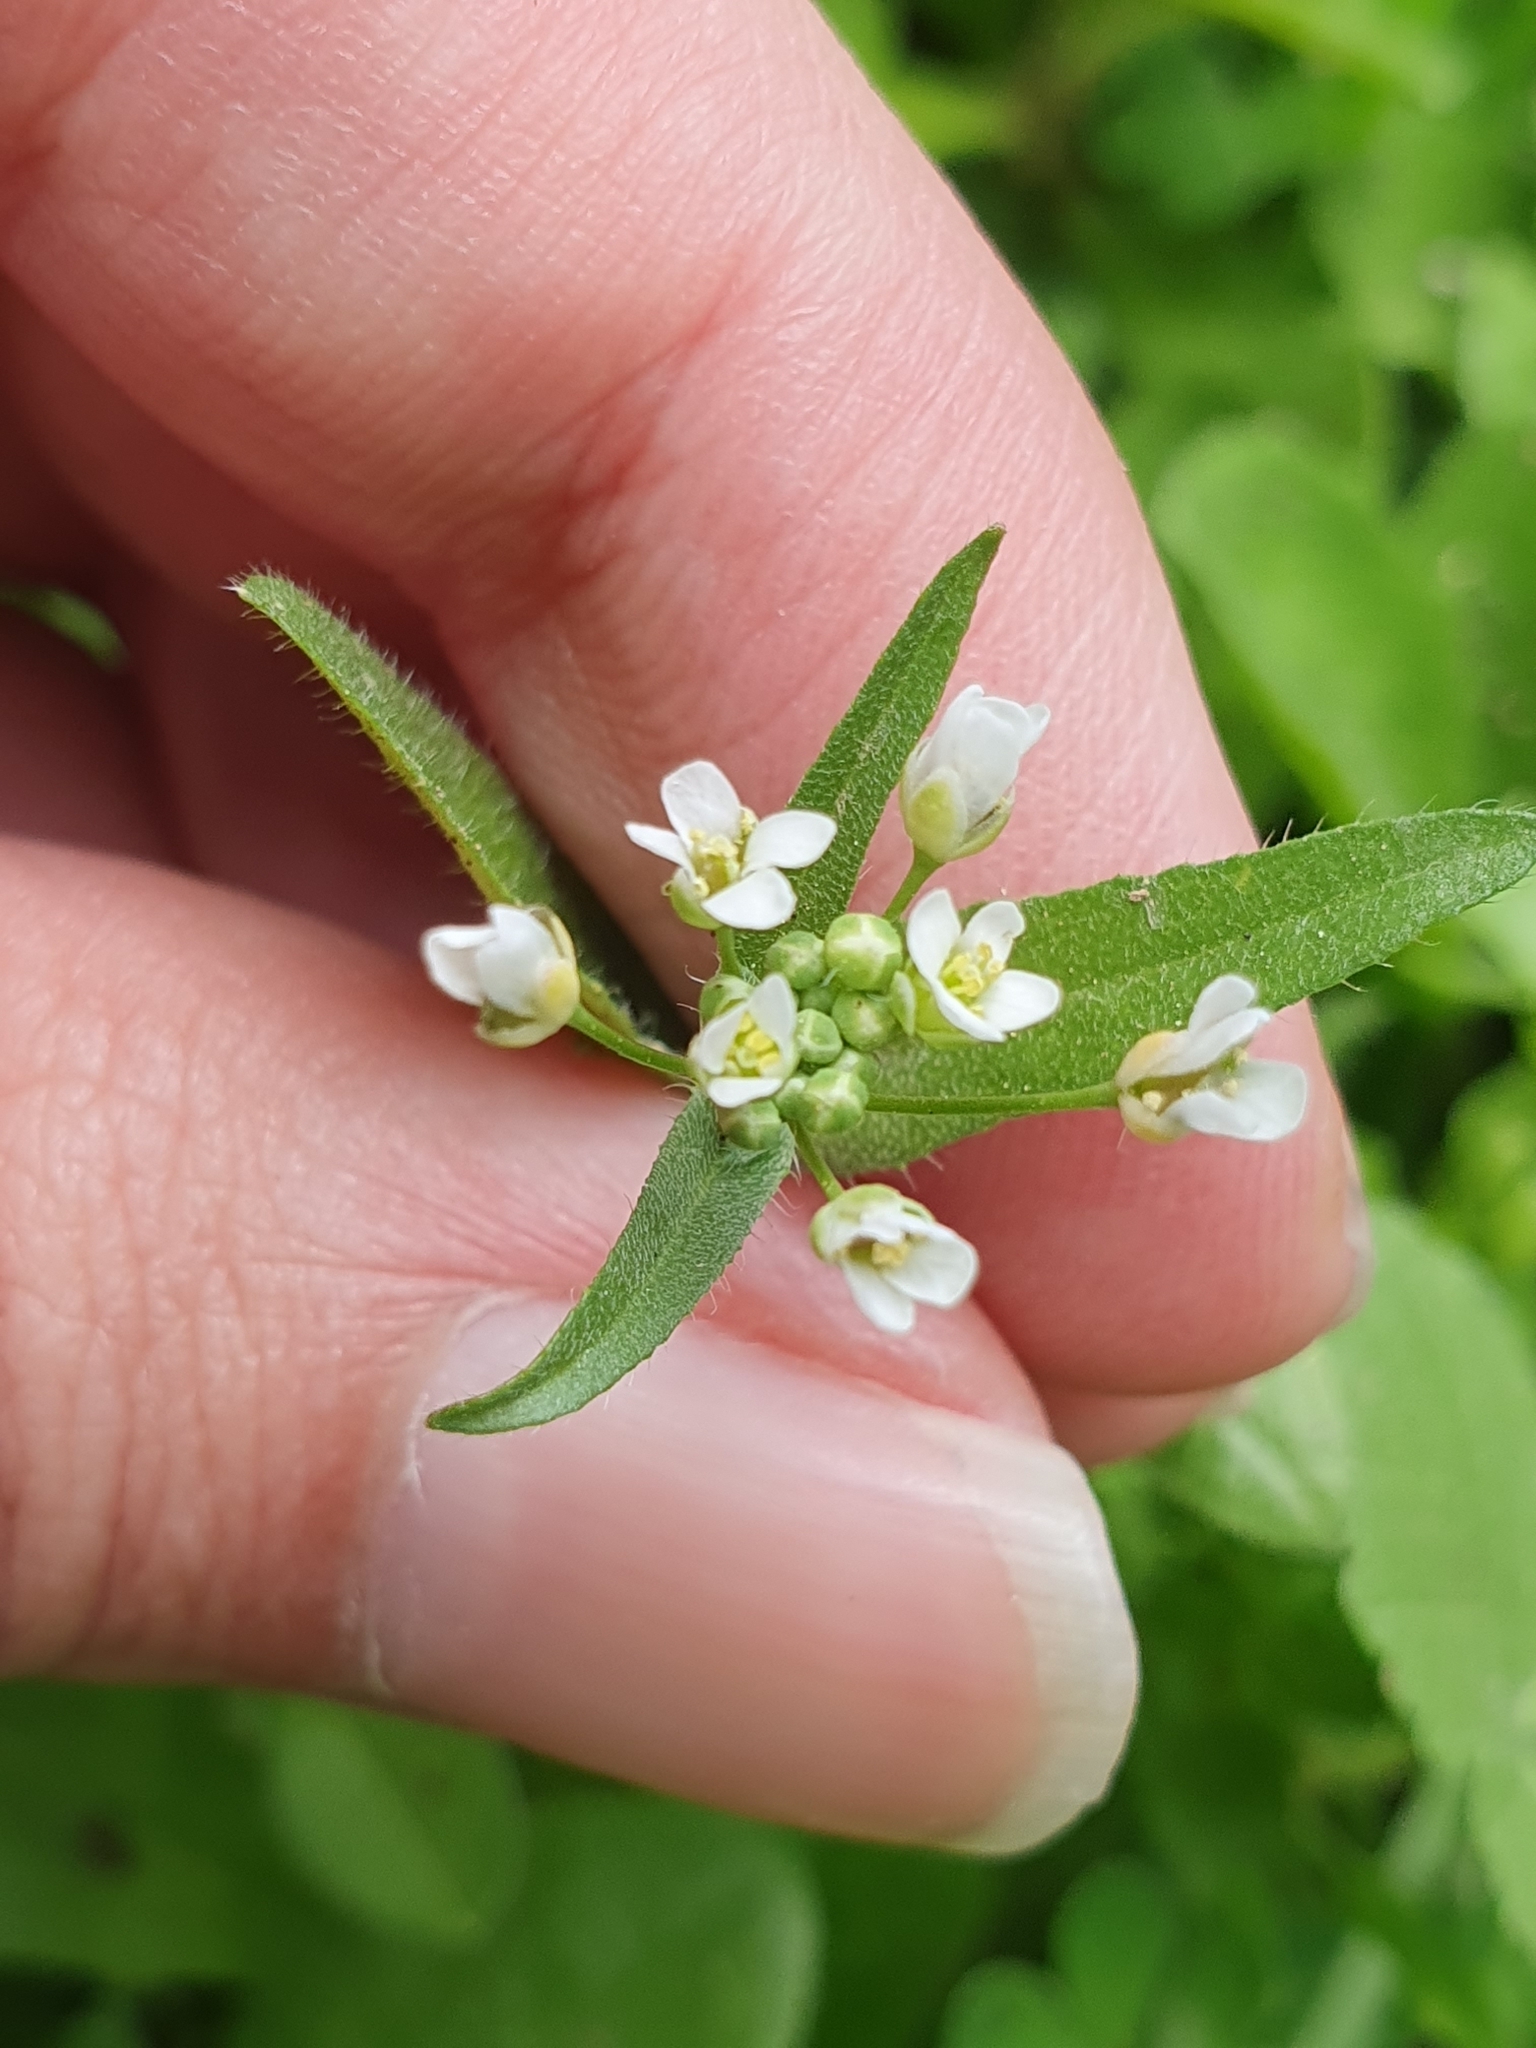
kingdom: Plantae
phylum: Tracheophyta
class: Magnoliopsida
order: Brassicales
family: Brassicaceae
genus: Capsella
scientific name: Capsella bursa-pastoris
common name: Shepherd's purse
